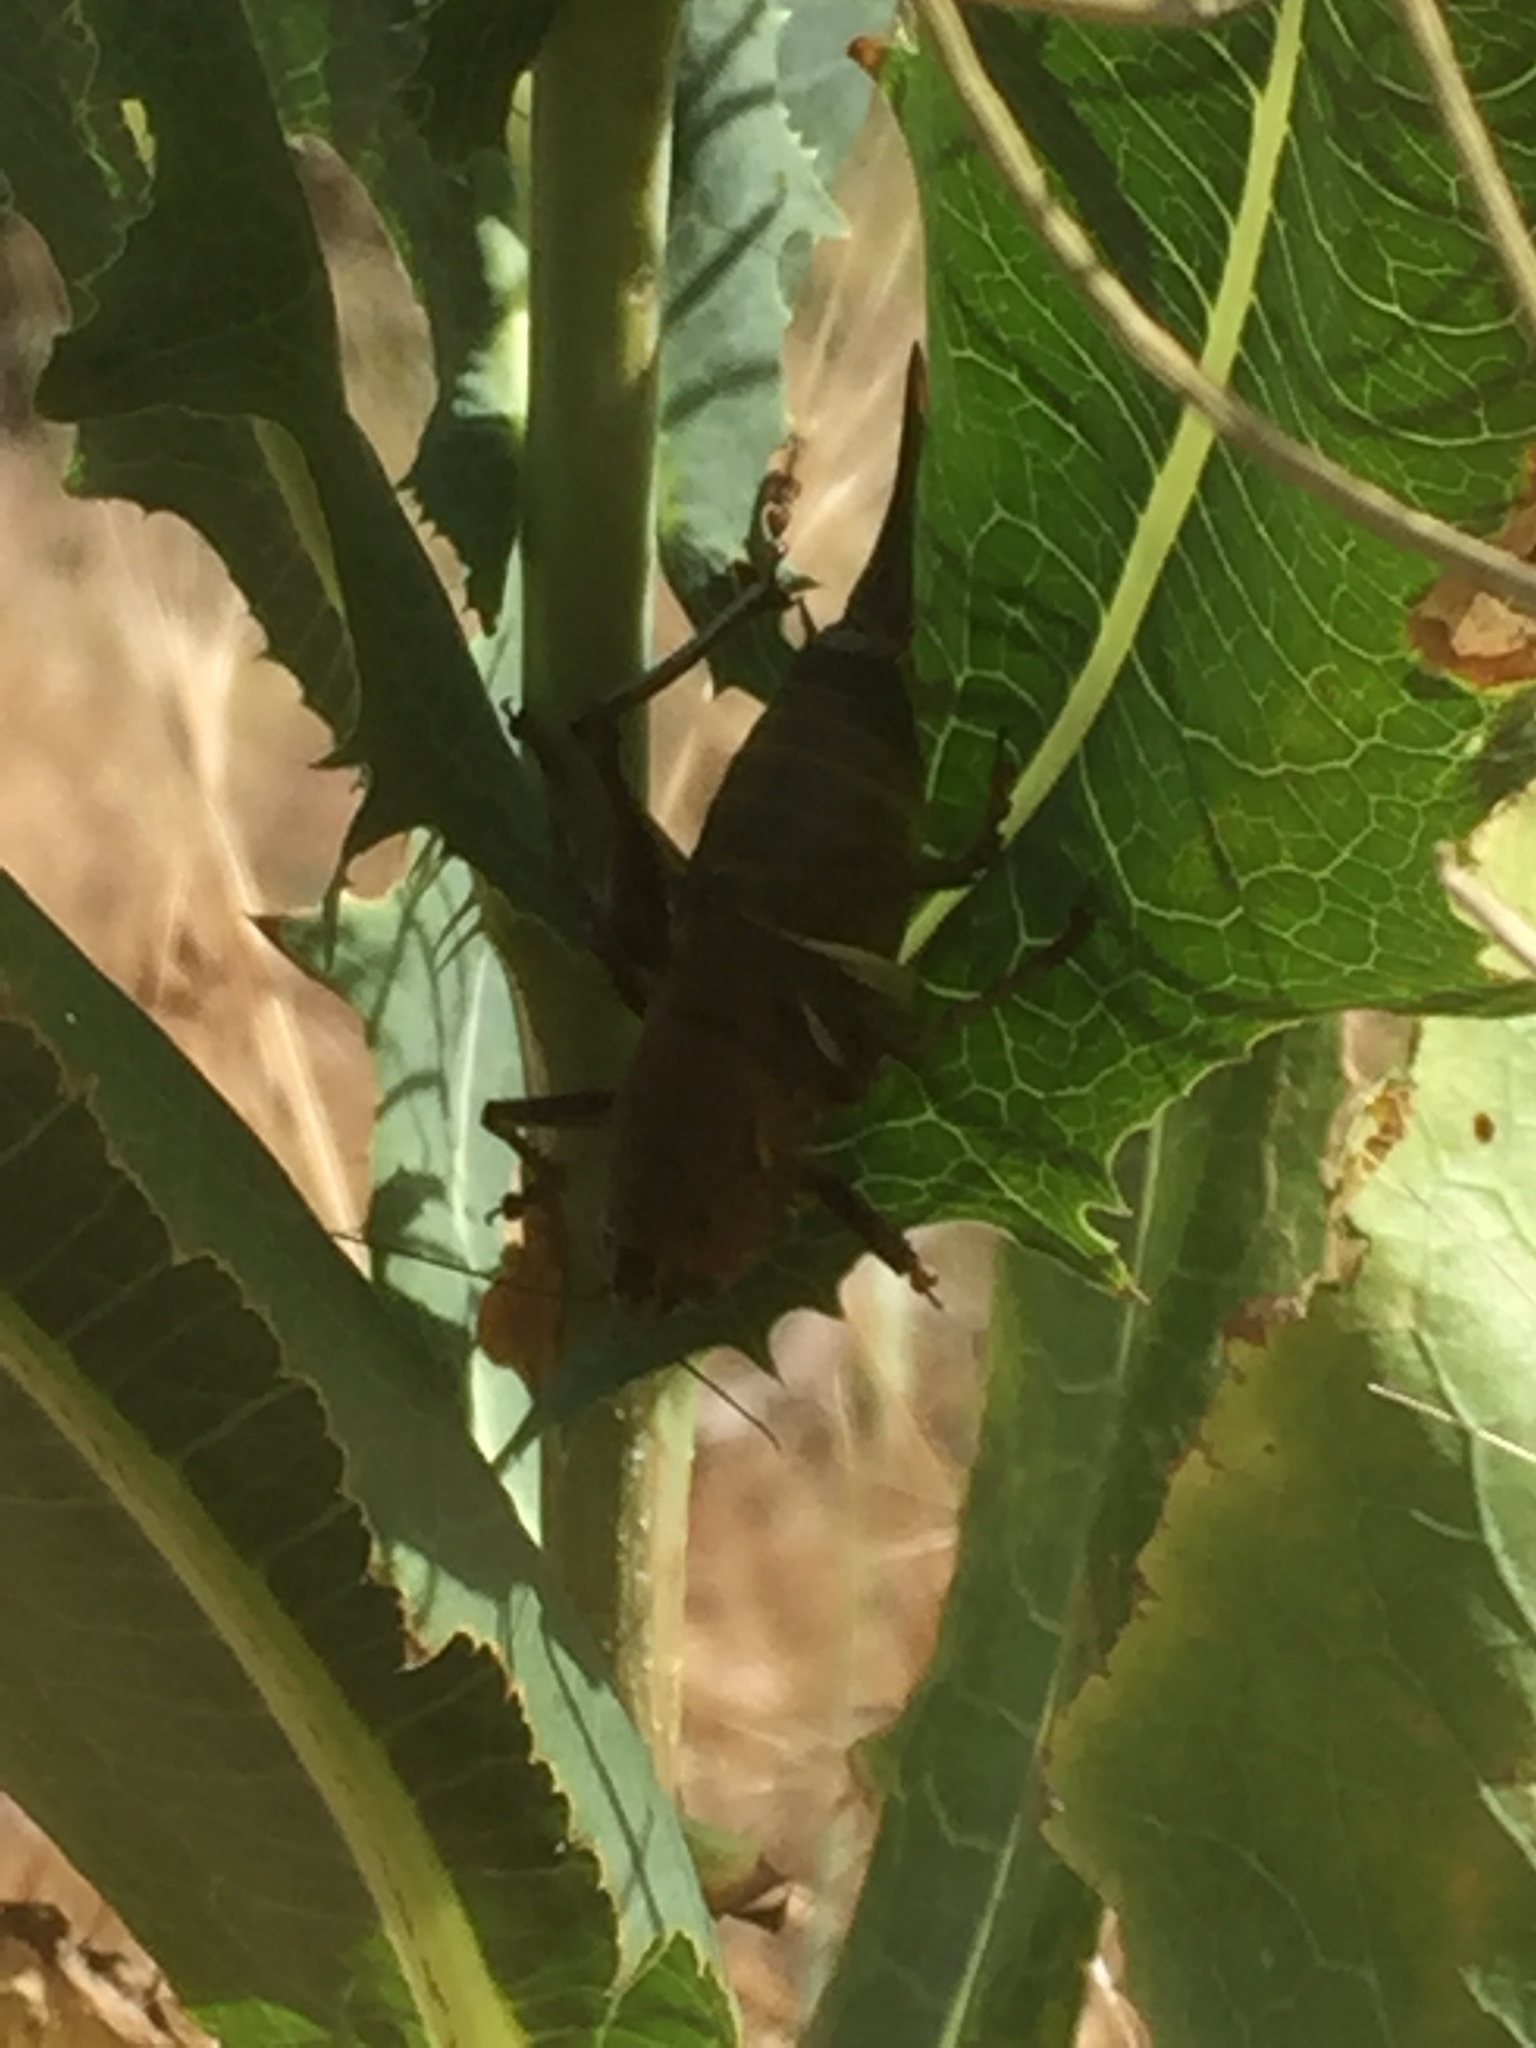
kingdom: Plantae
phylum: Tracheophyta
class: Magnoliopsida
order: Asterales
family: Asteraceae
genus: Lactuca
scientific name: Lactuca serriola
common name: Prickly lettuce
